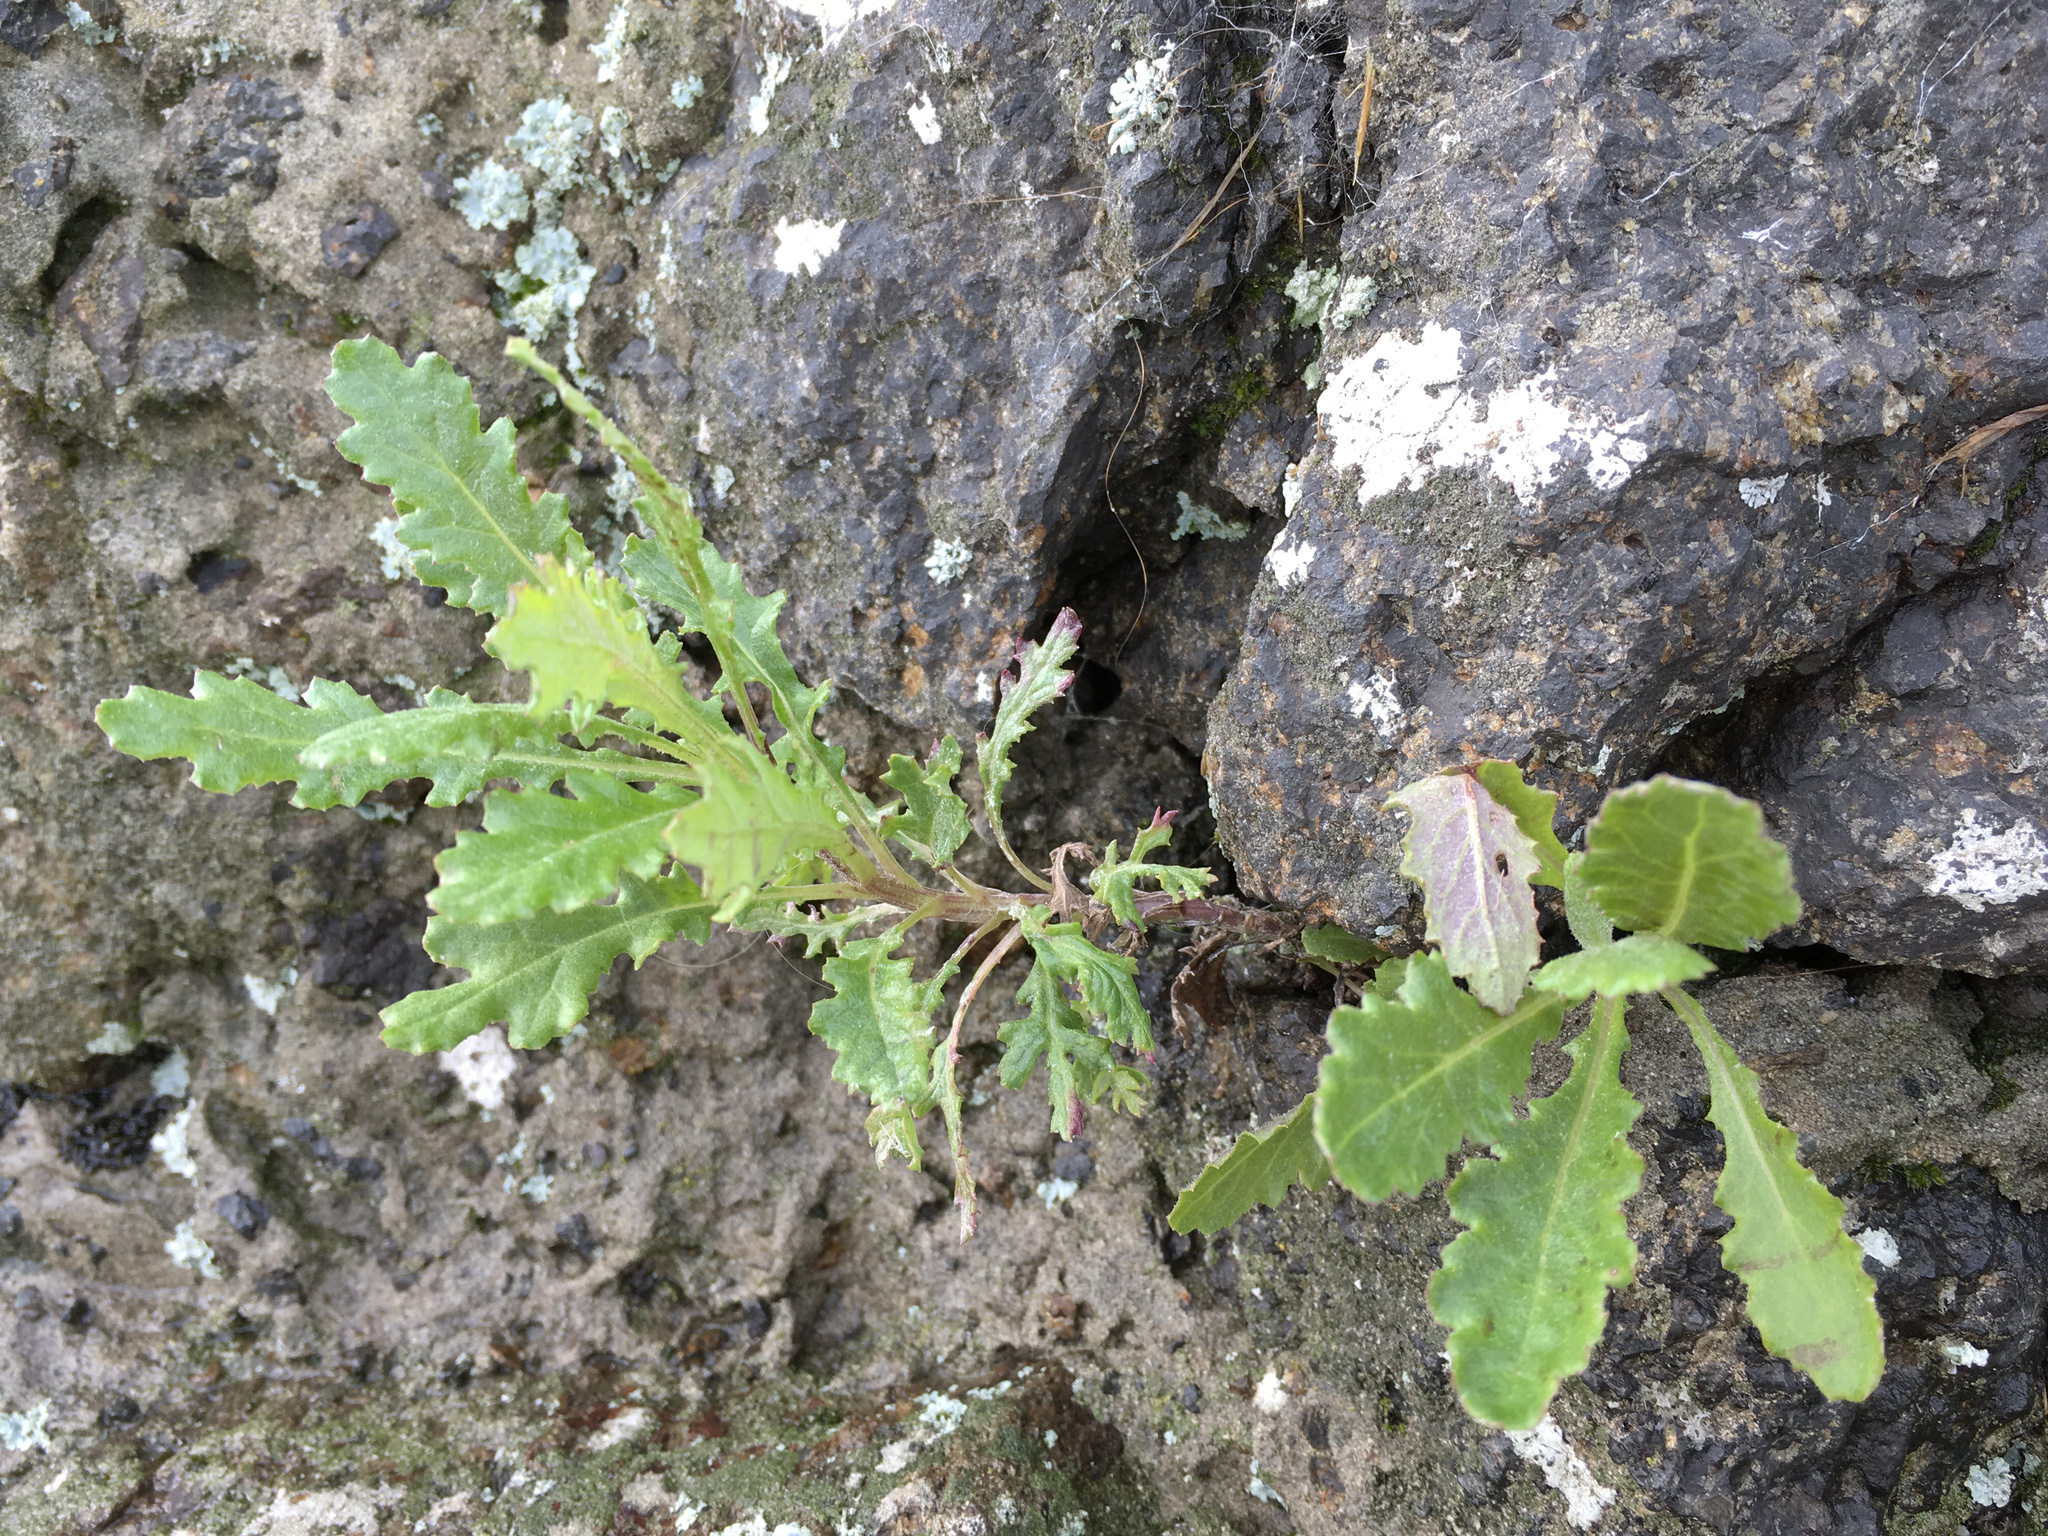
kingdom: Plantae
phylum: Tracheophyta
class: Magnoliopsida
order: Asterales
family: Asteraceae
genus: Senecio
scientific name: Senecio glomeratus
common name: Cutleaf burnweed
